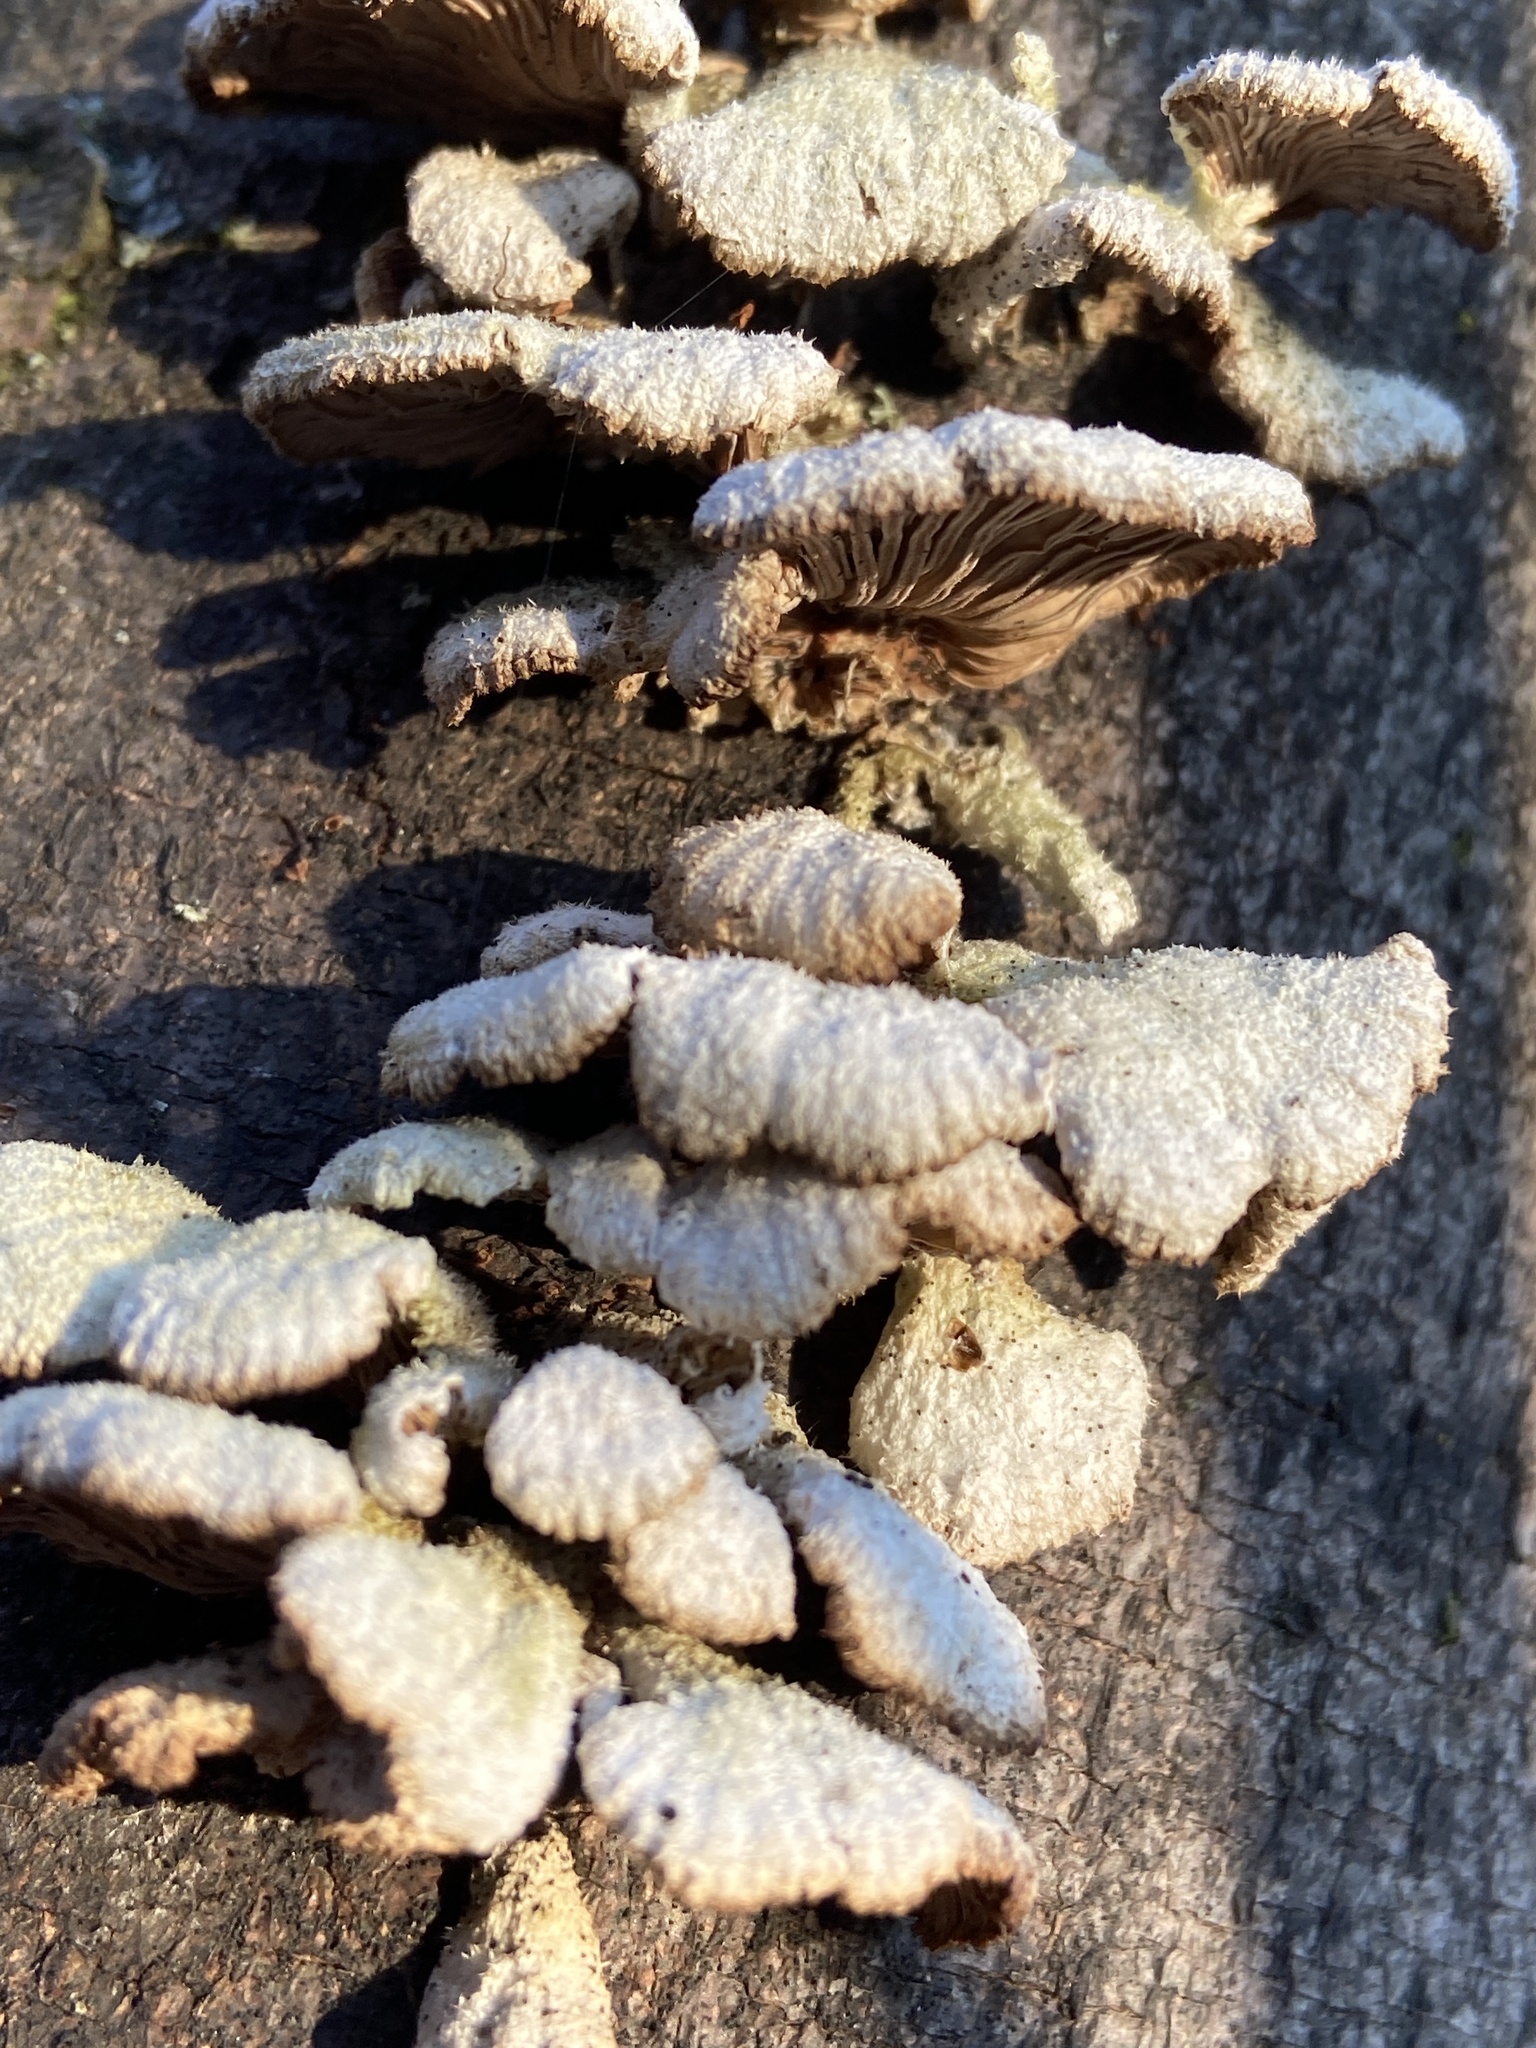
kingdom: Fungi
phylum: Basidiomycota
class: Agaricomycetes
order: Agaricales
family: Schizophyllaceae
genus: Schizophyllum
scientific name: Schizophyllum commune
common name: Common porecrust
